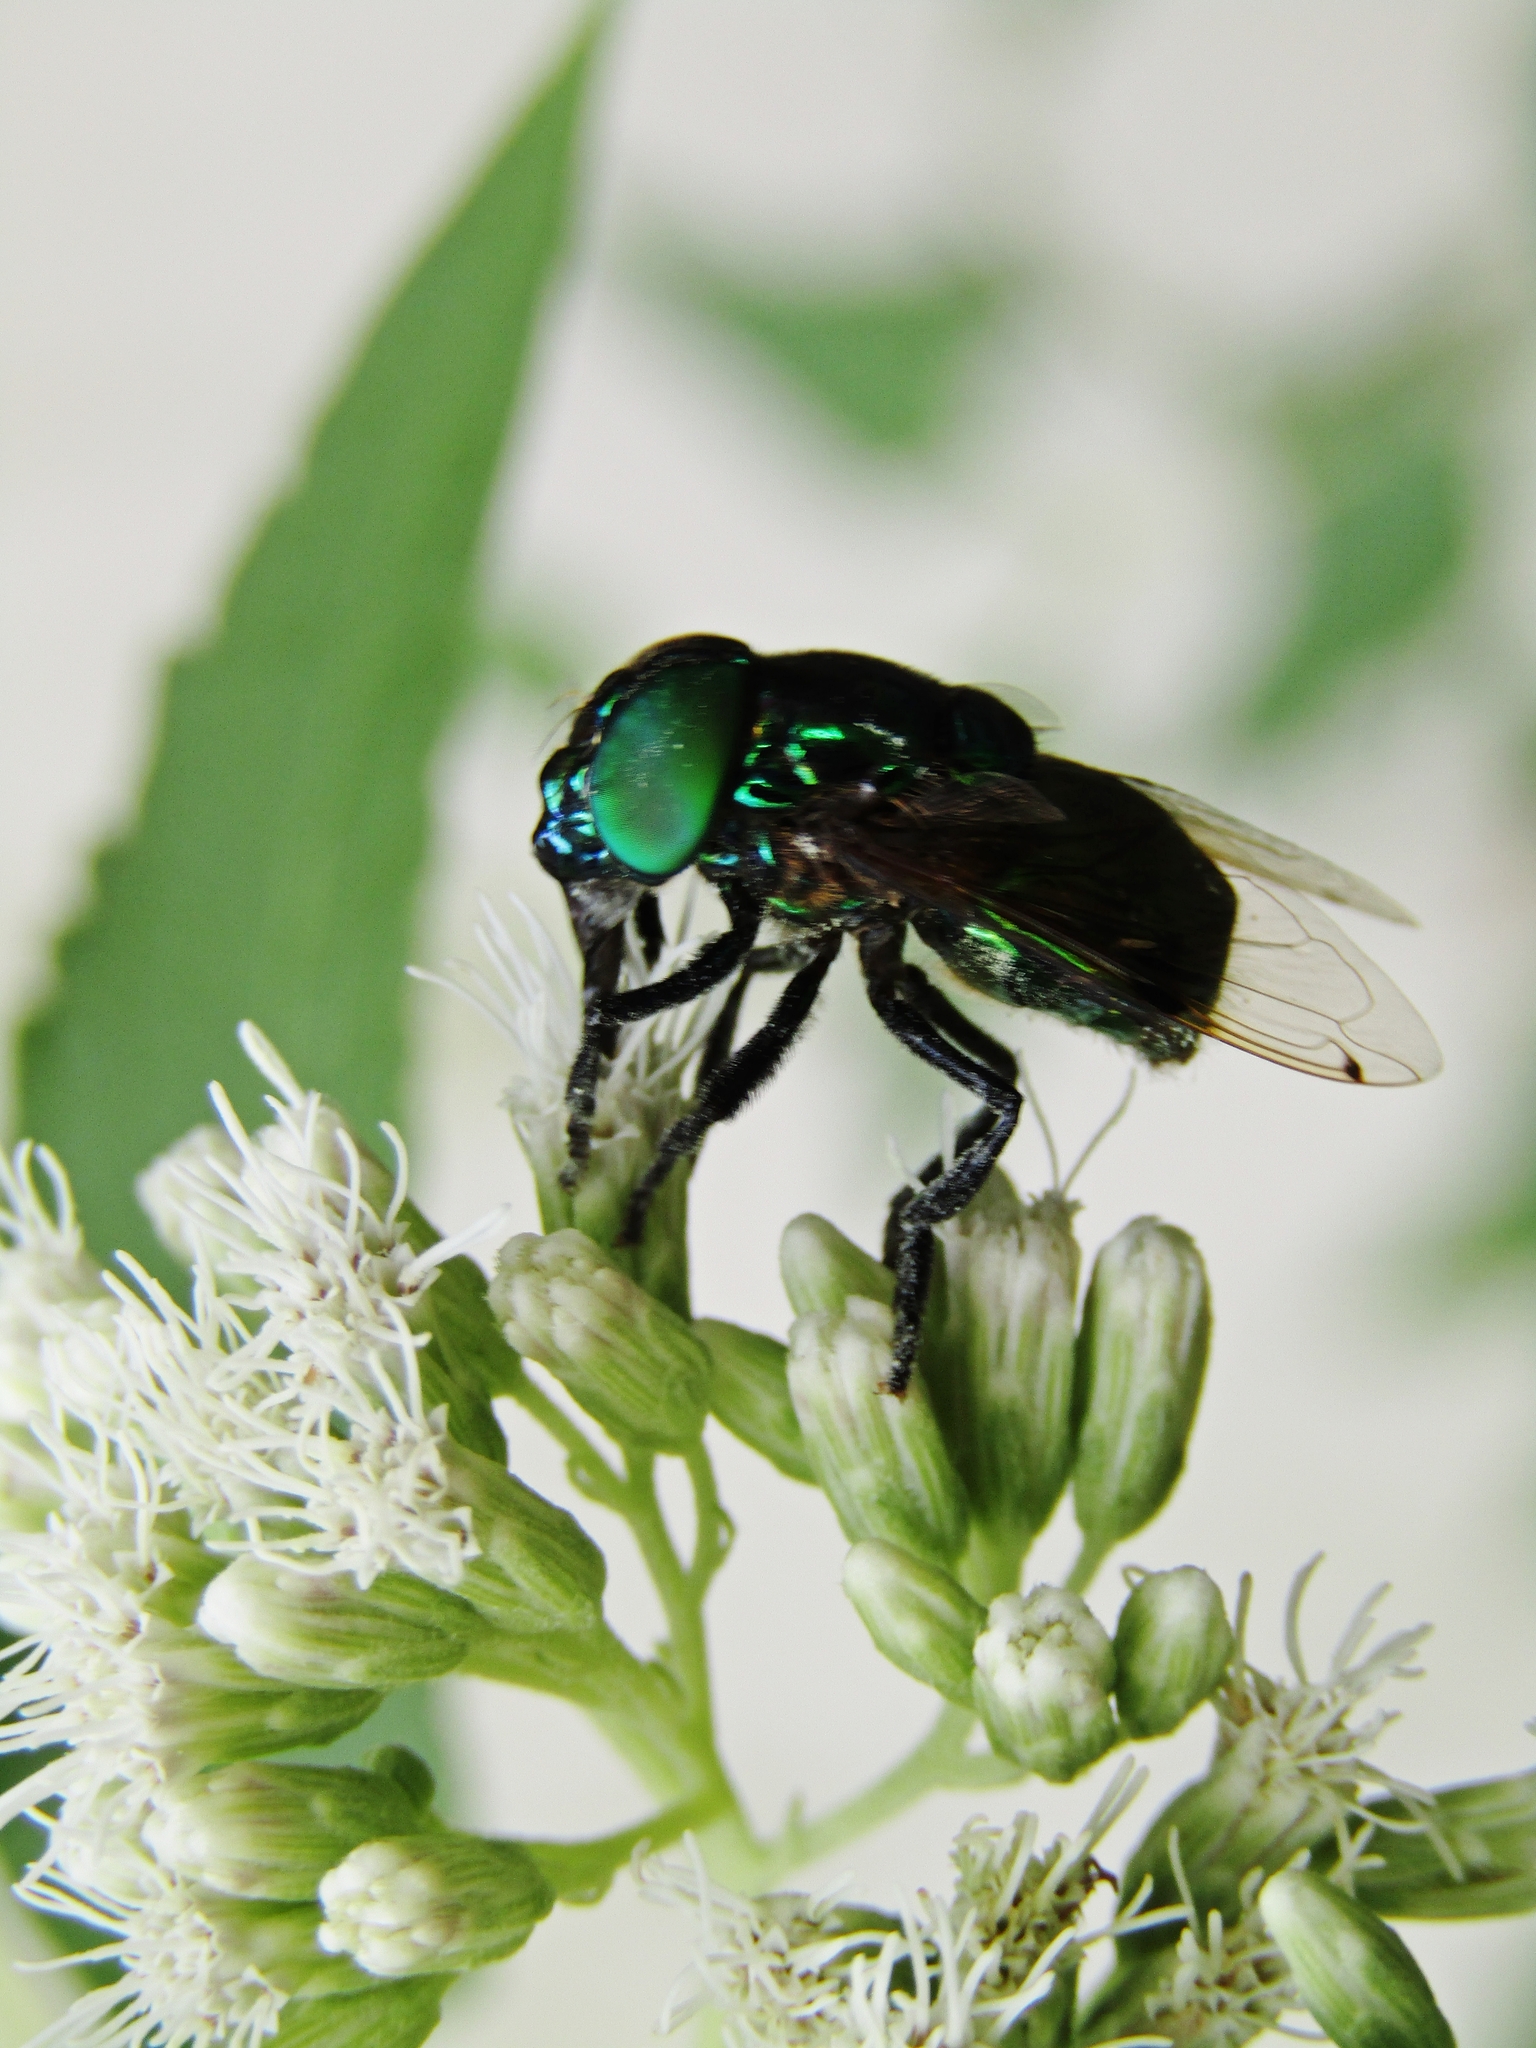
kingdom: Animalia
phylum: Arthropoda
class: Insecta
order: Diptera
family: Syrphidae
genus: Ornidia
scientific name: Ornidia obesa
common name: Syrphid fly
